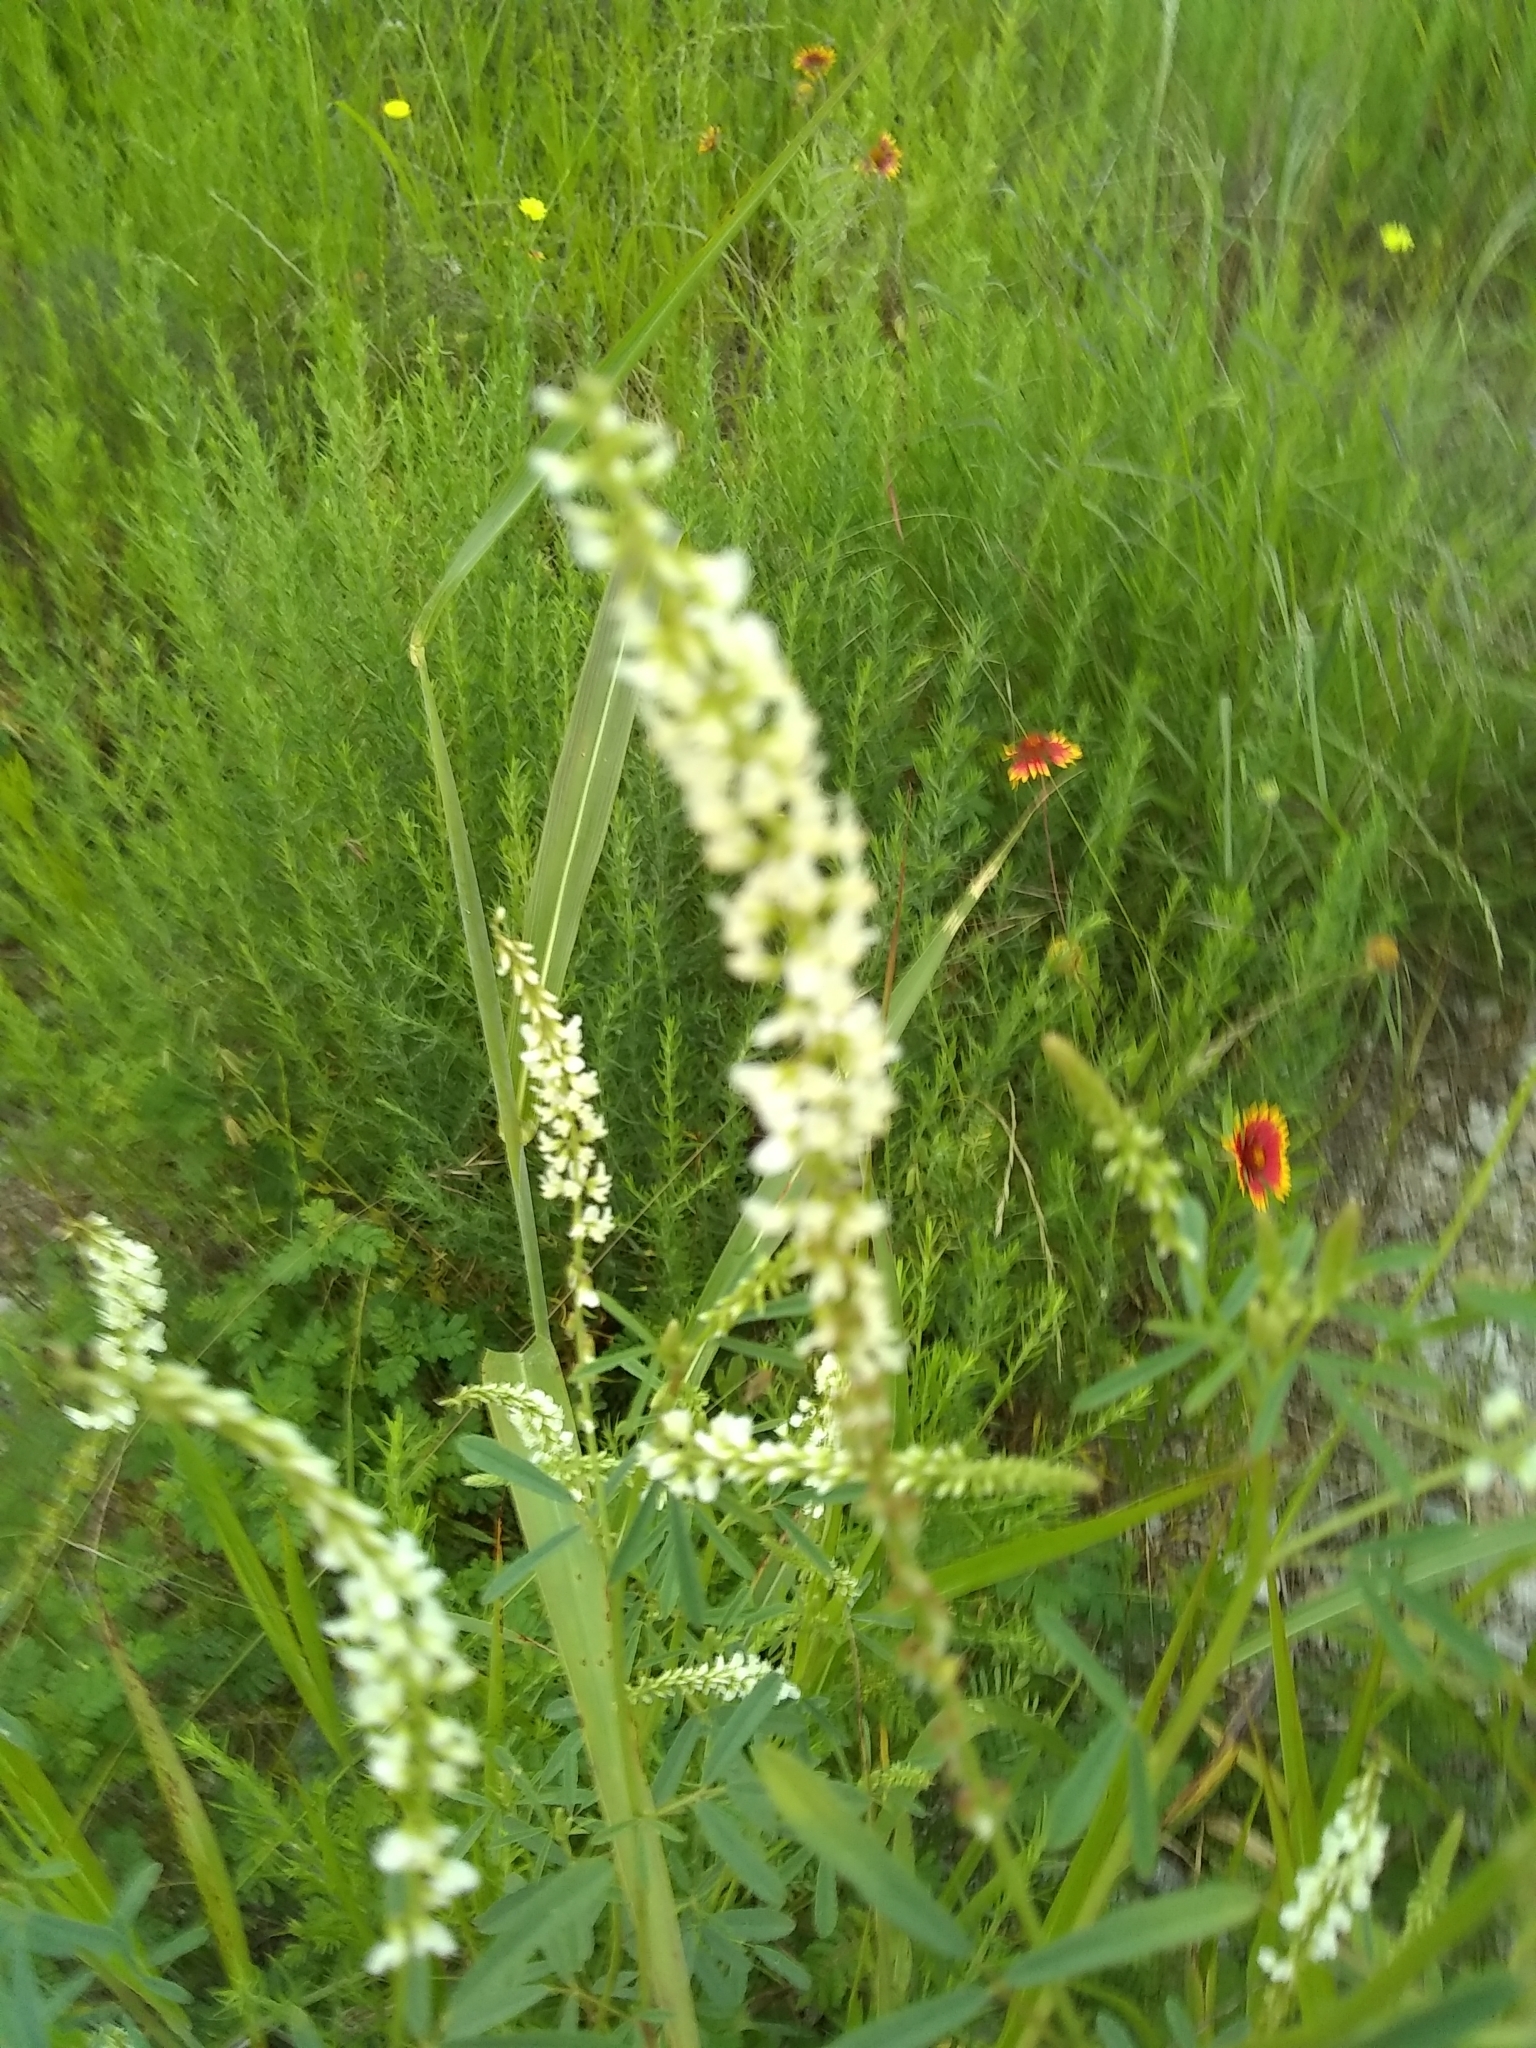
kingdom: Plantae
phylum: Tracheophyta
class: Magnoliopsida
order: Fabales
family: Fabaceae
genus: Melilotus
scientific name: Melilotus albus
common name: White melilot
